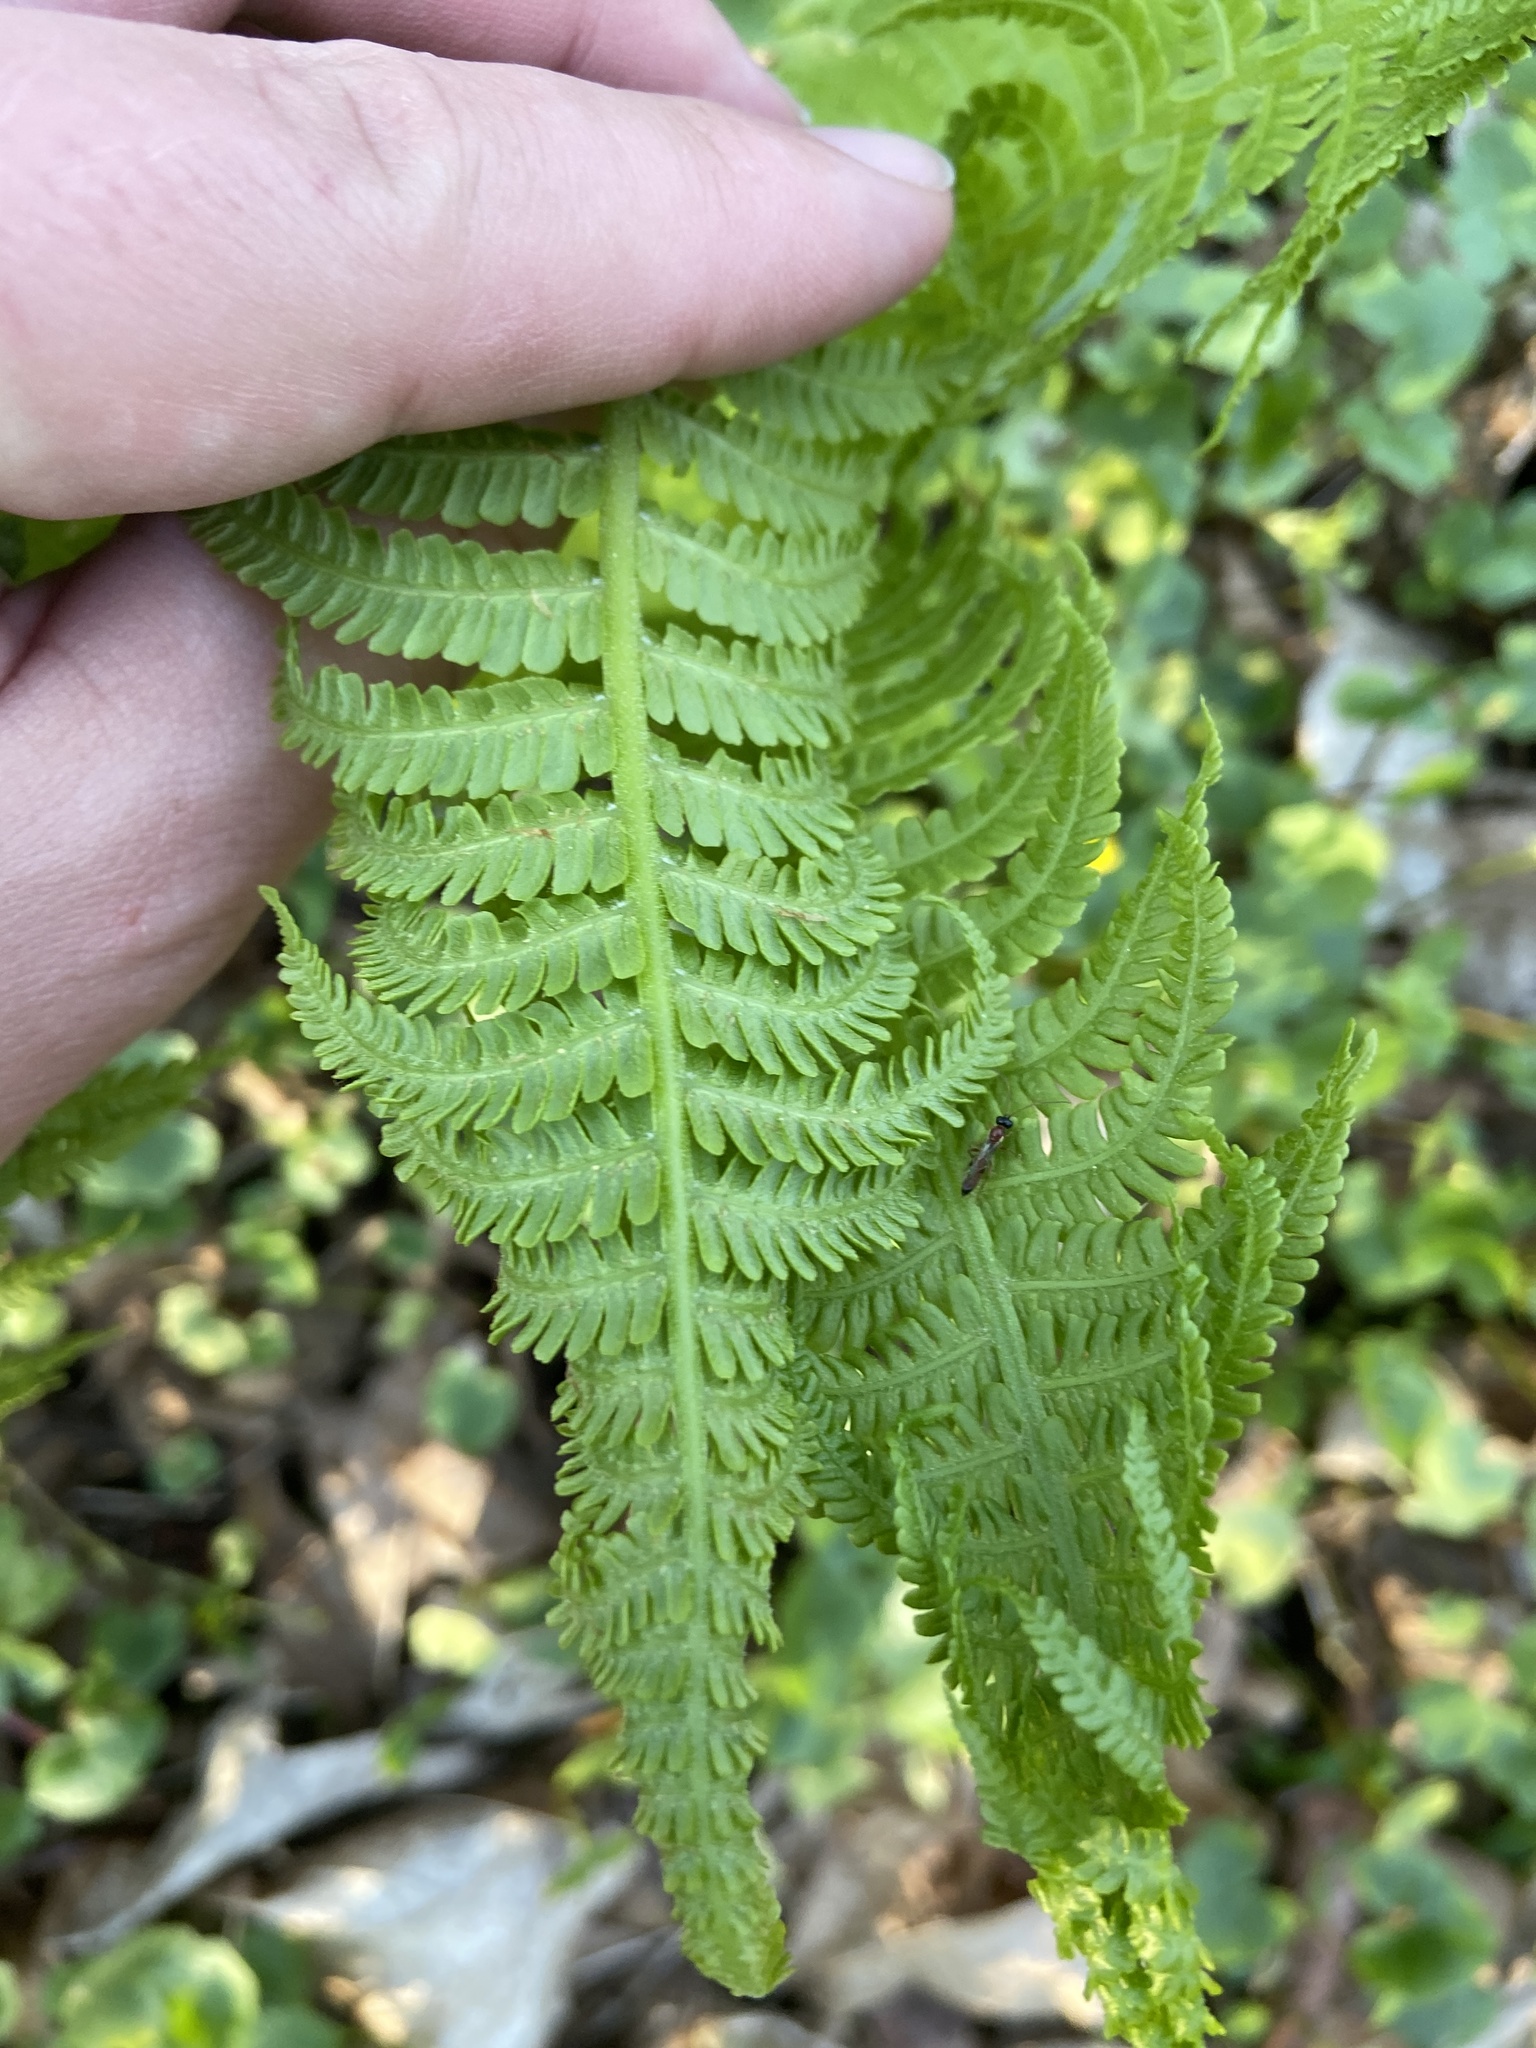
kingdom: Plantae
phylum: Tracheophyta
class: Polypodiopsida
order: Polypodiales
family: Onocleaceae
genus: Matteuccia
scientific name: Matteuccia struthiopteris
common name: Ostrich fern
